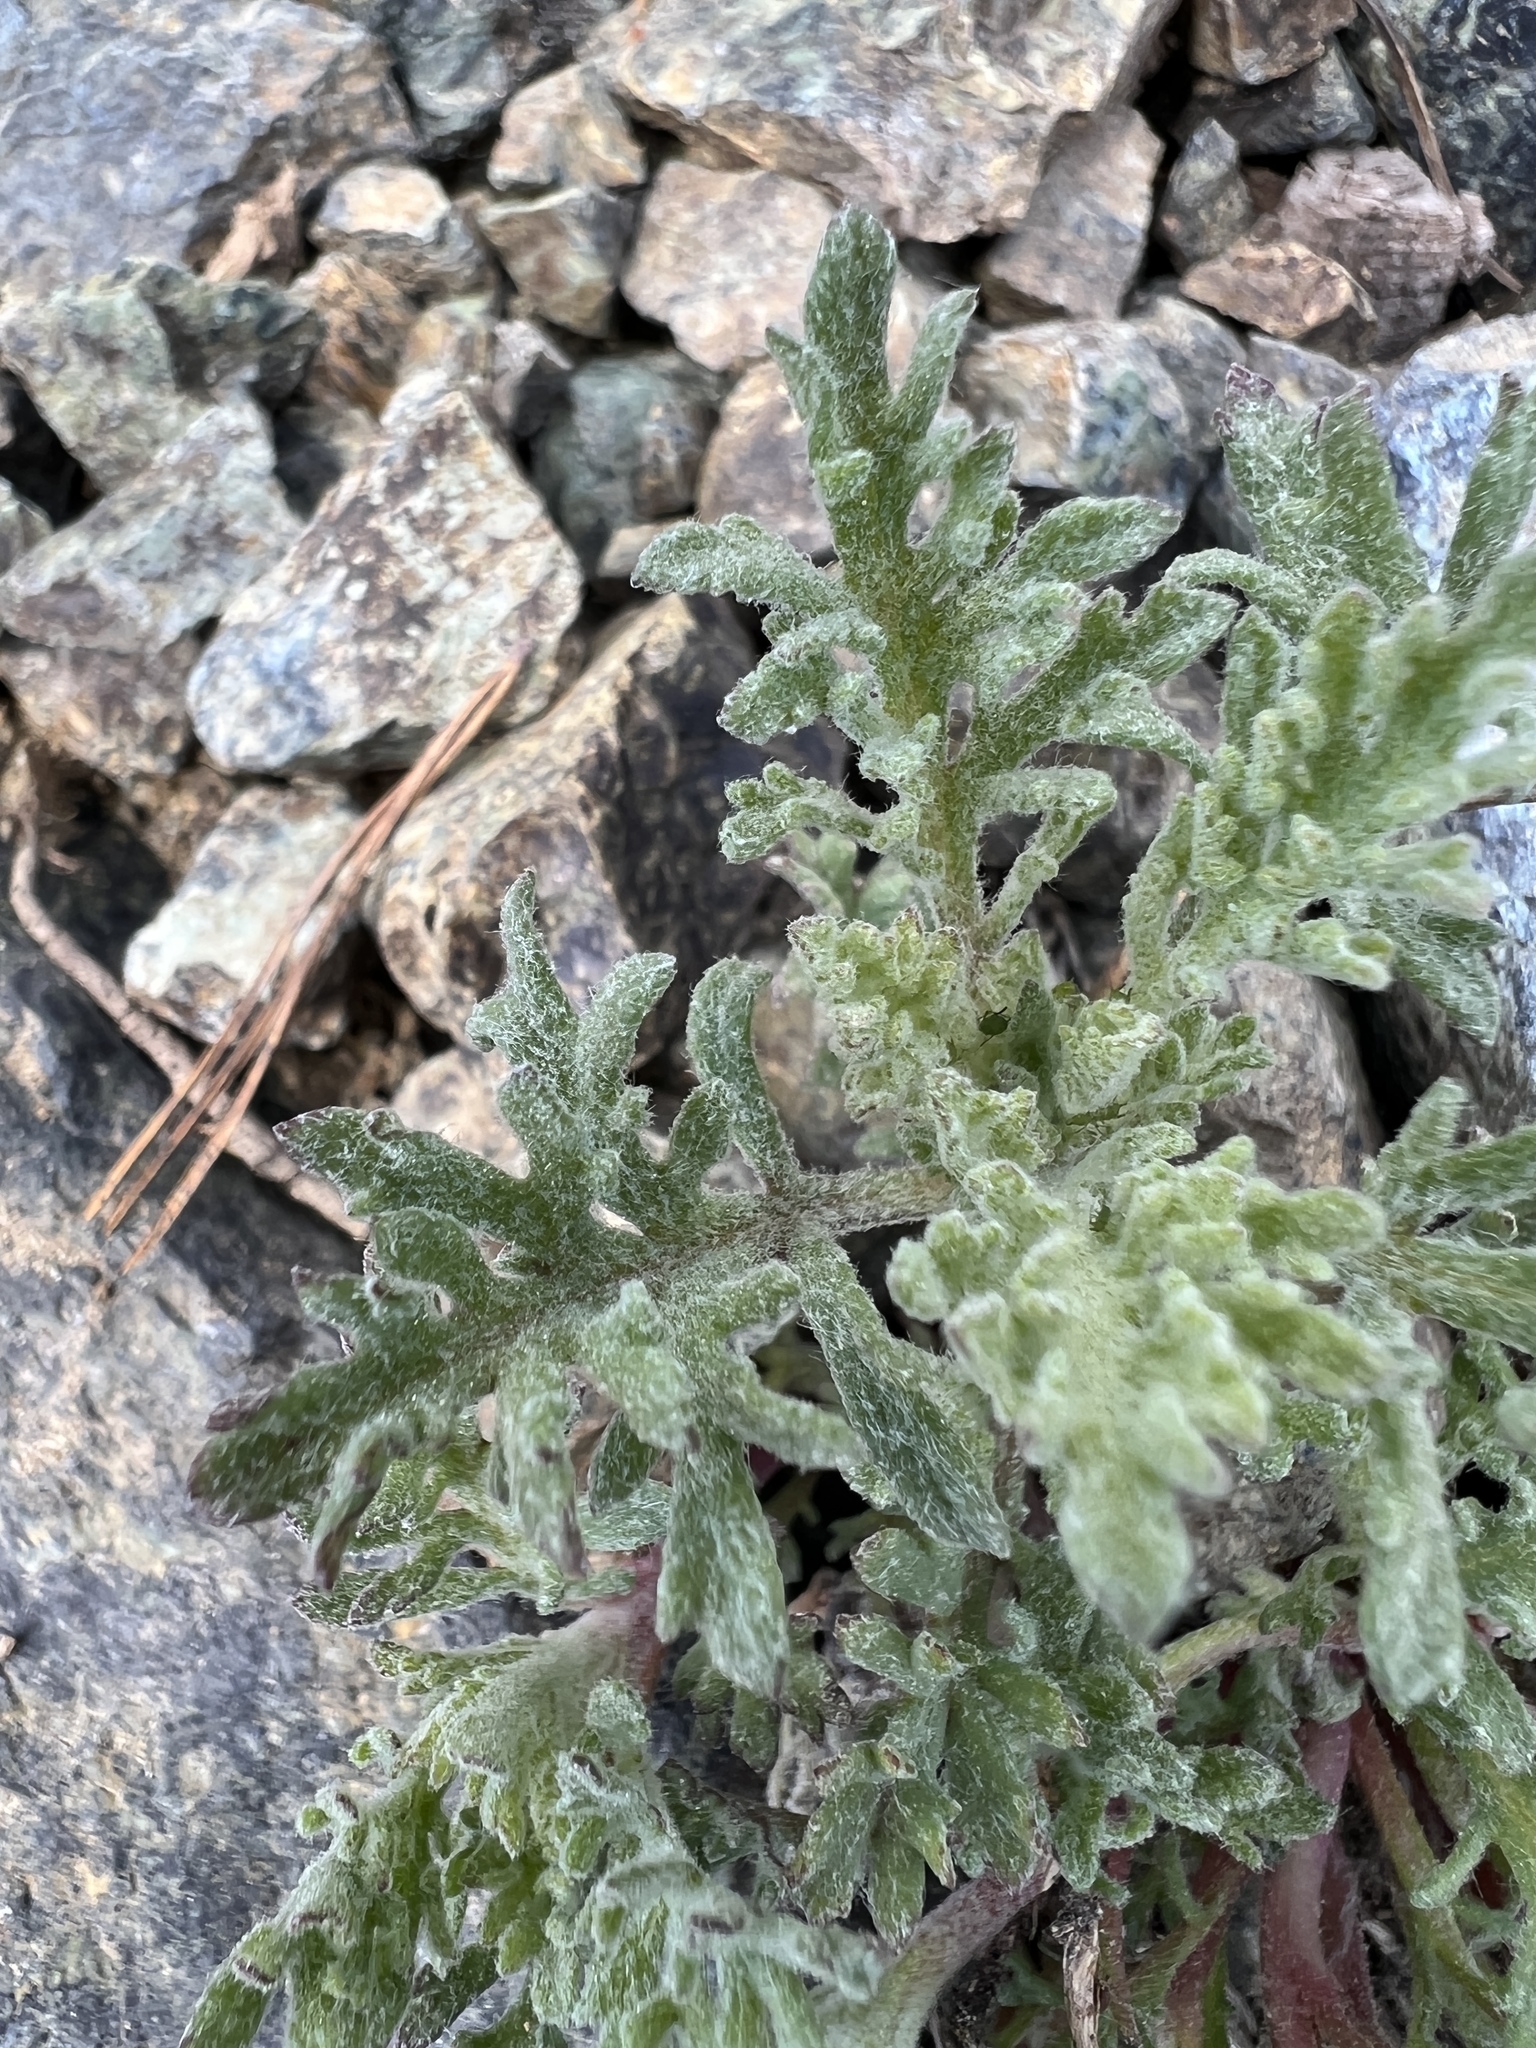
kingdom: Plantae
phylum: Tracheophyta
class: Magnoliopsida
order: Asterales
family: Asteraceae
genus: Chaenactis
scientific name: Chaenactis thompsonii
